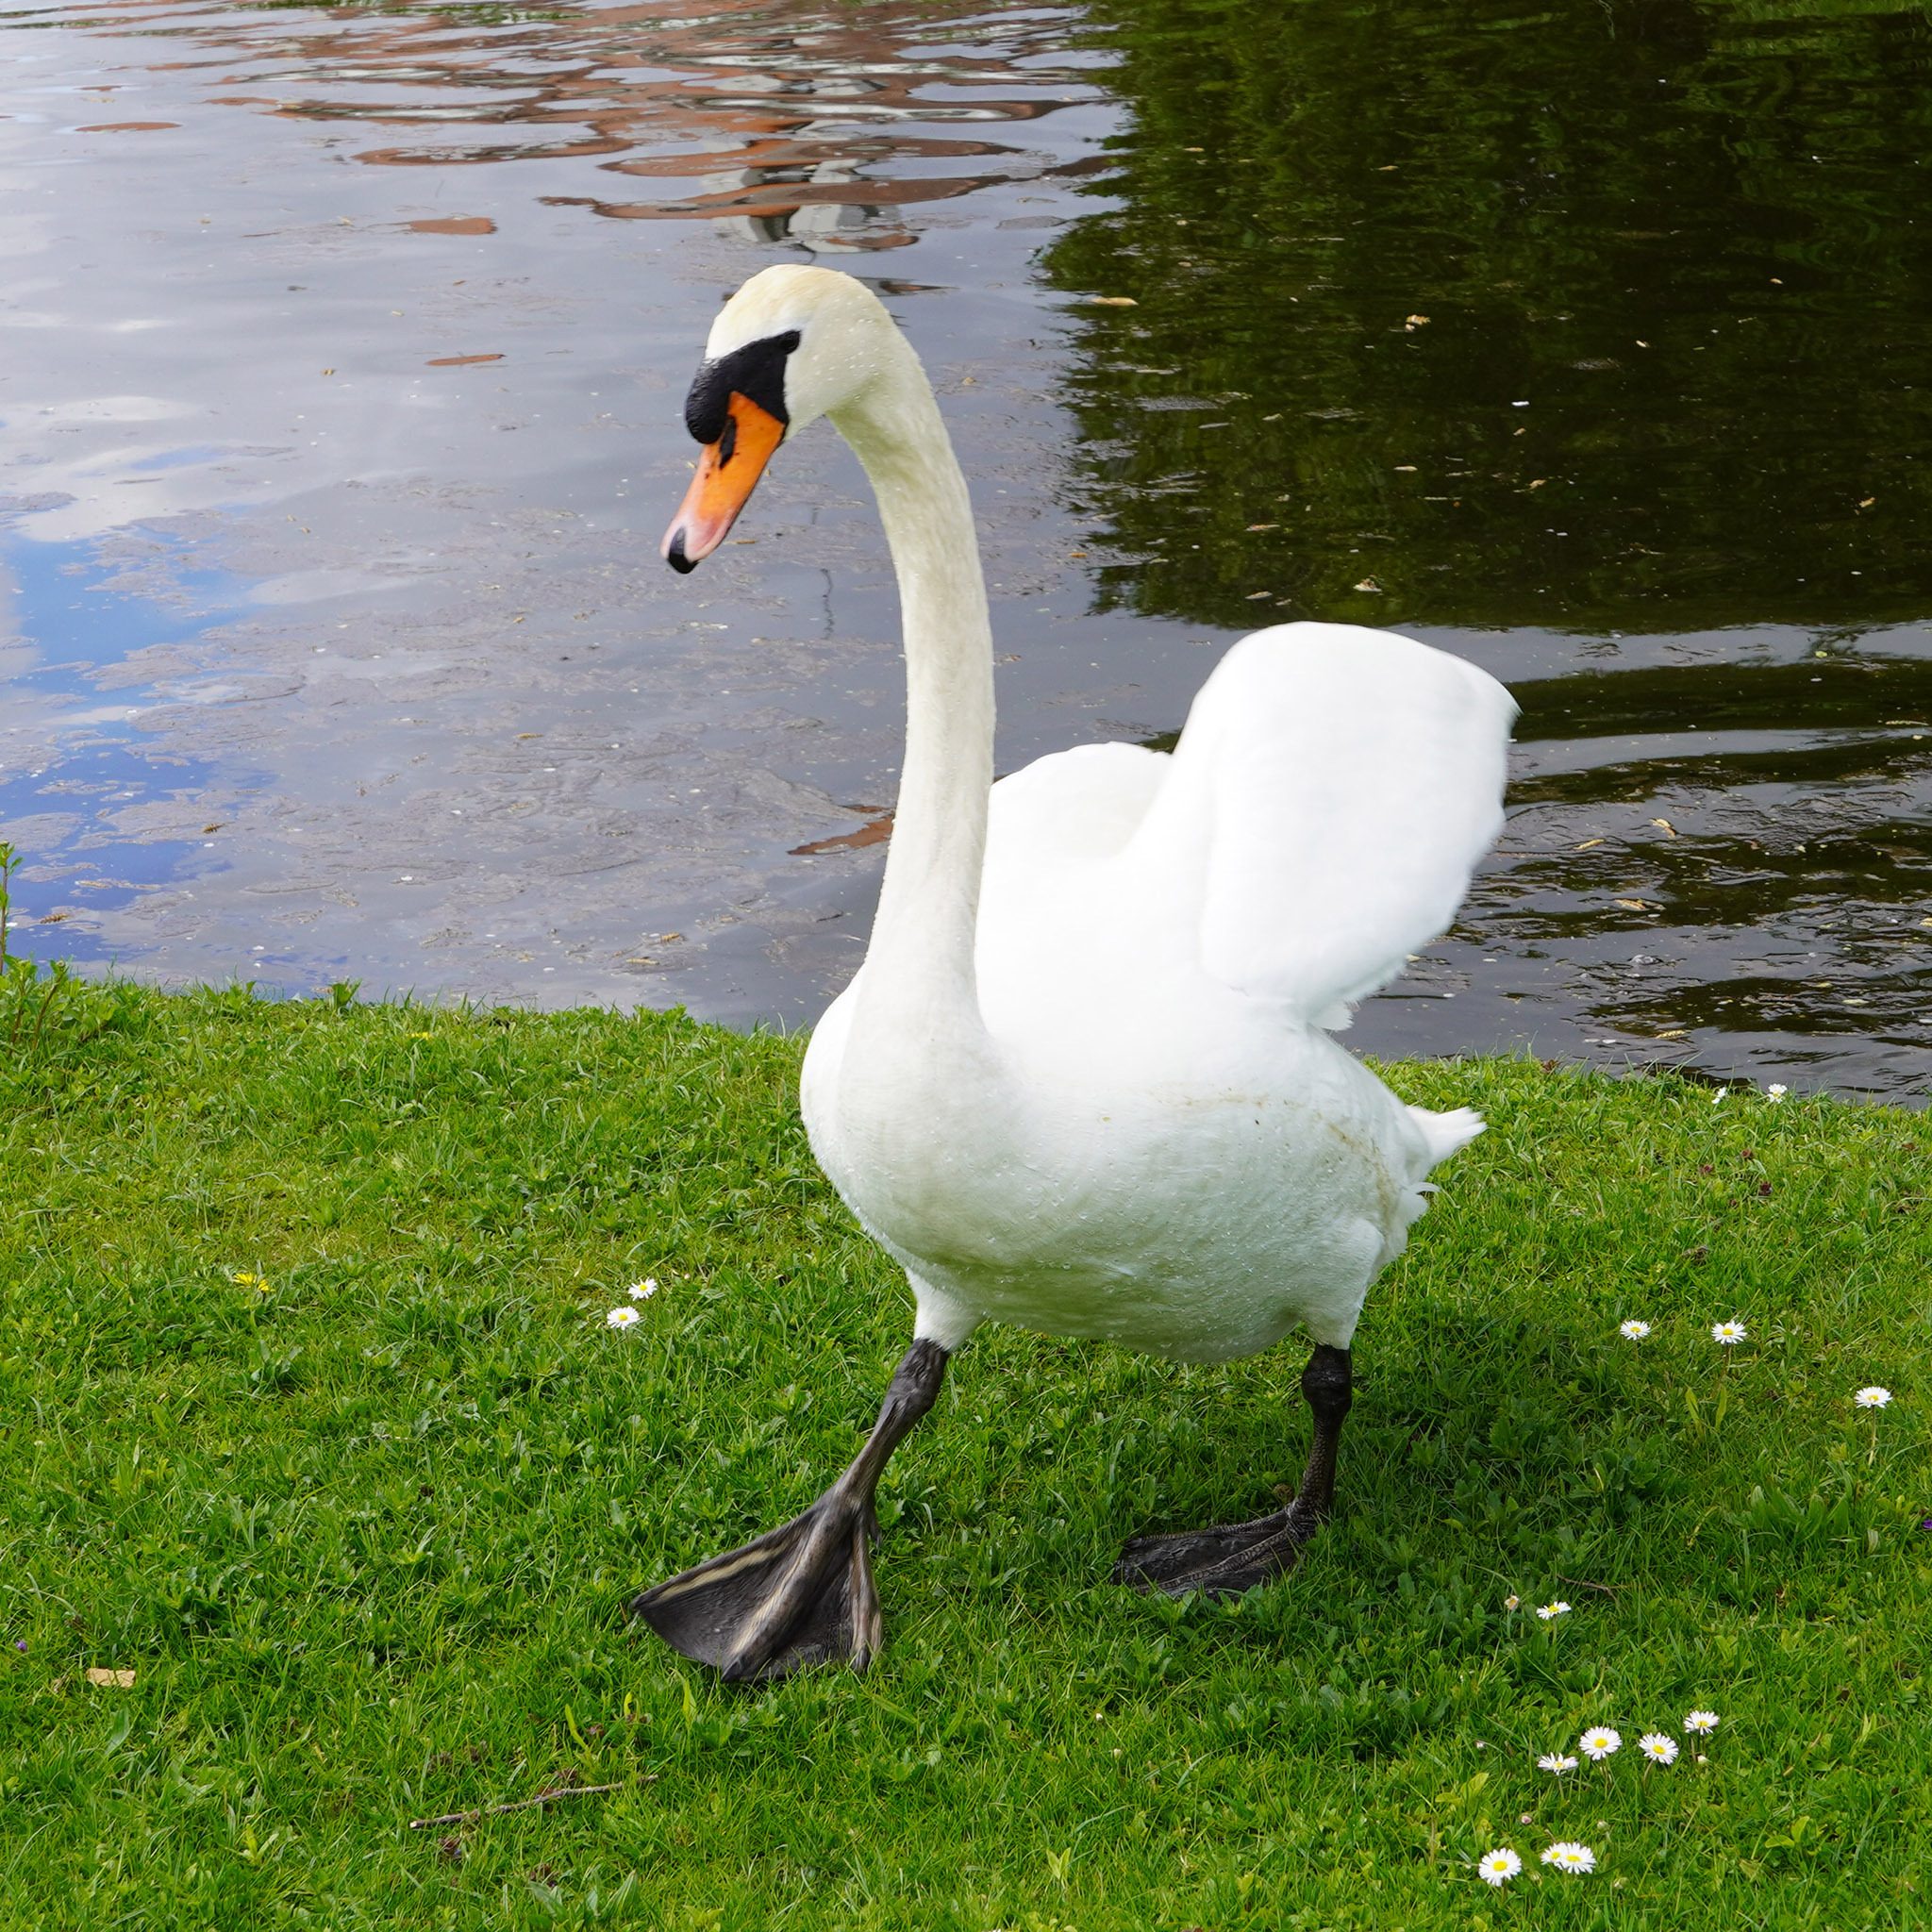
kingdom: Animalia
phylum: Chordata
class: Aves
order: Anseriformes
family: Anatidae
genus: Cygnus
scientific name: Cygnus olor
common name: Mute swan
